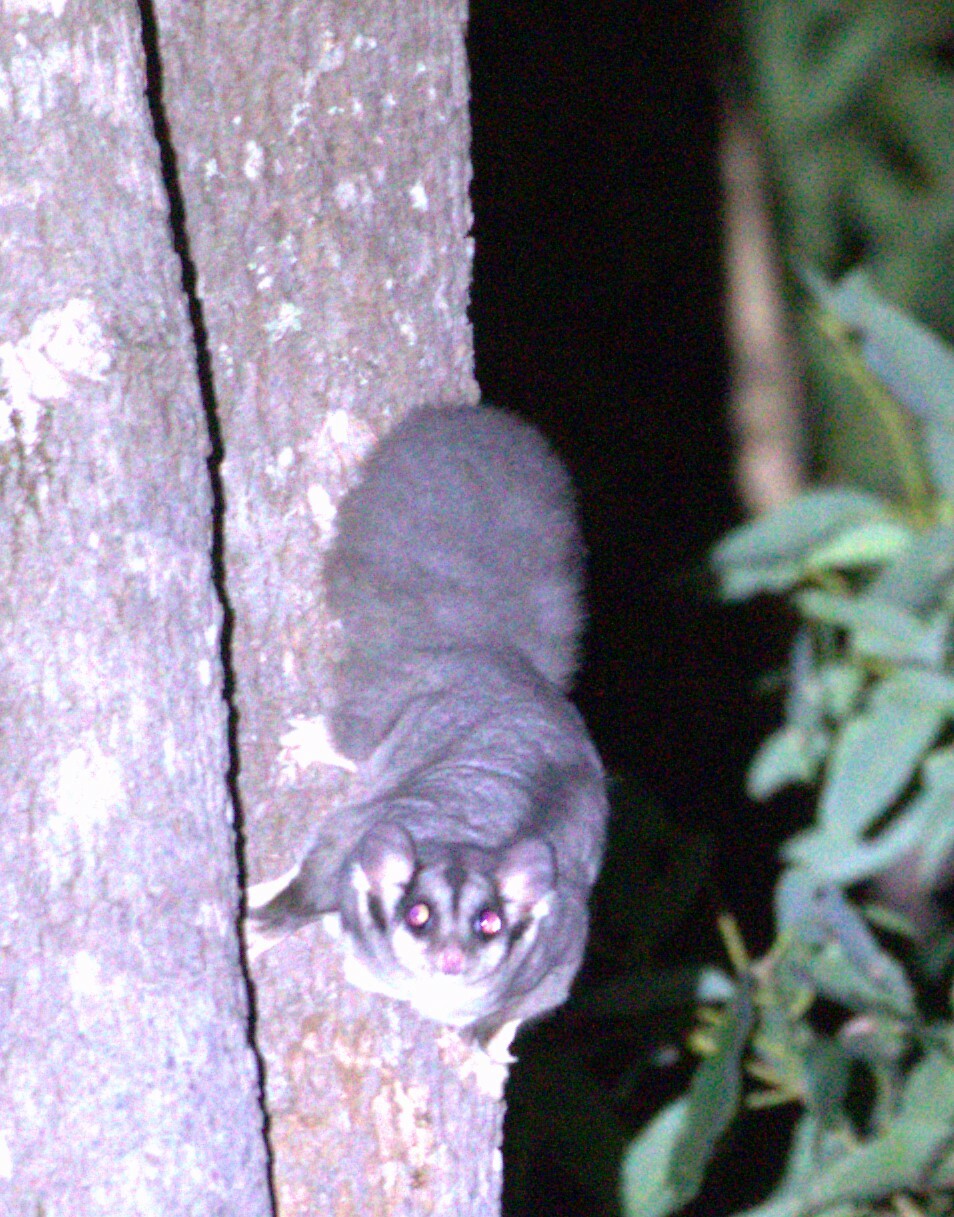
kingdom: Animalia
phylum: Chordata
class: Mammalia
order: Diprotodontia
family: Petauridae
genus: Petaurus
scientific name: Petaurus norfolcensis
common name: Squirrel glider
